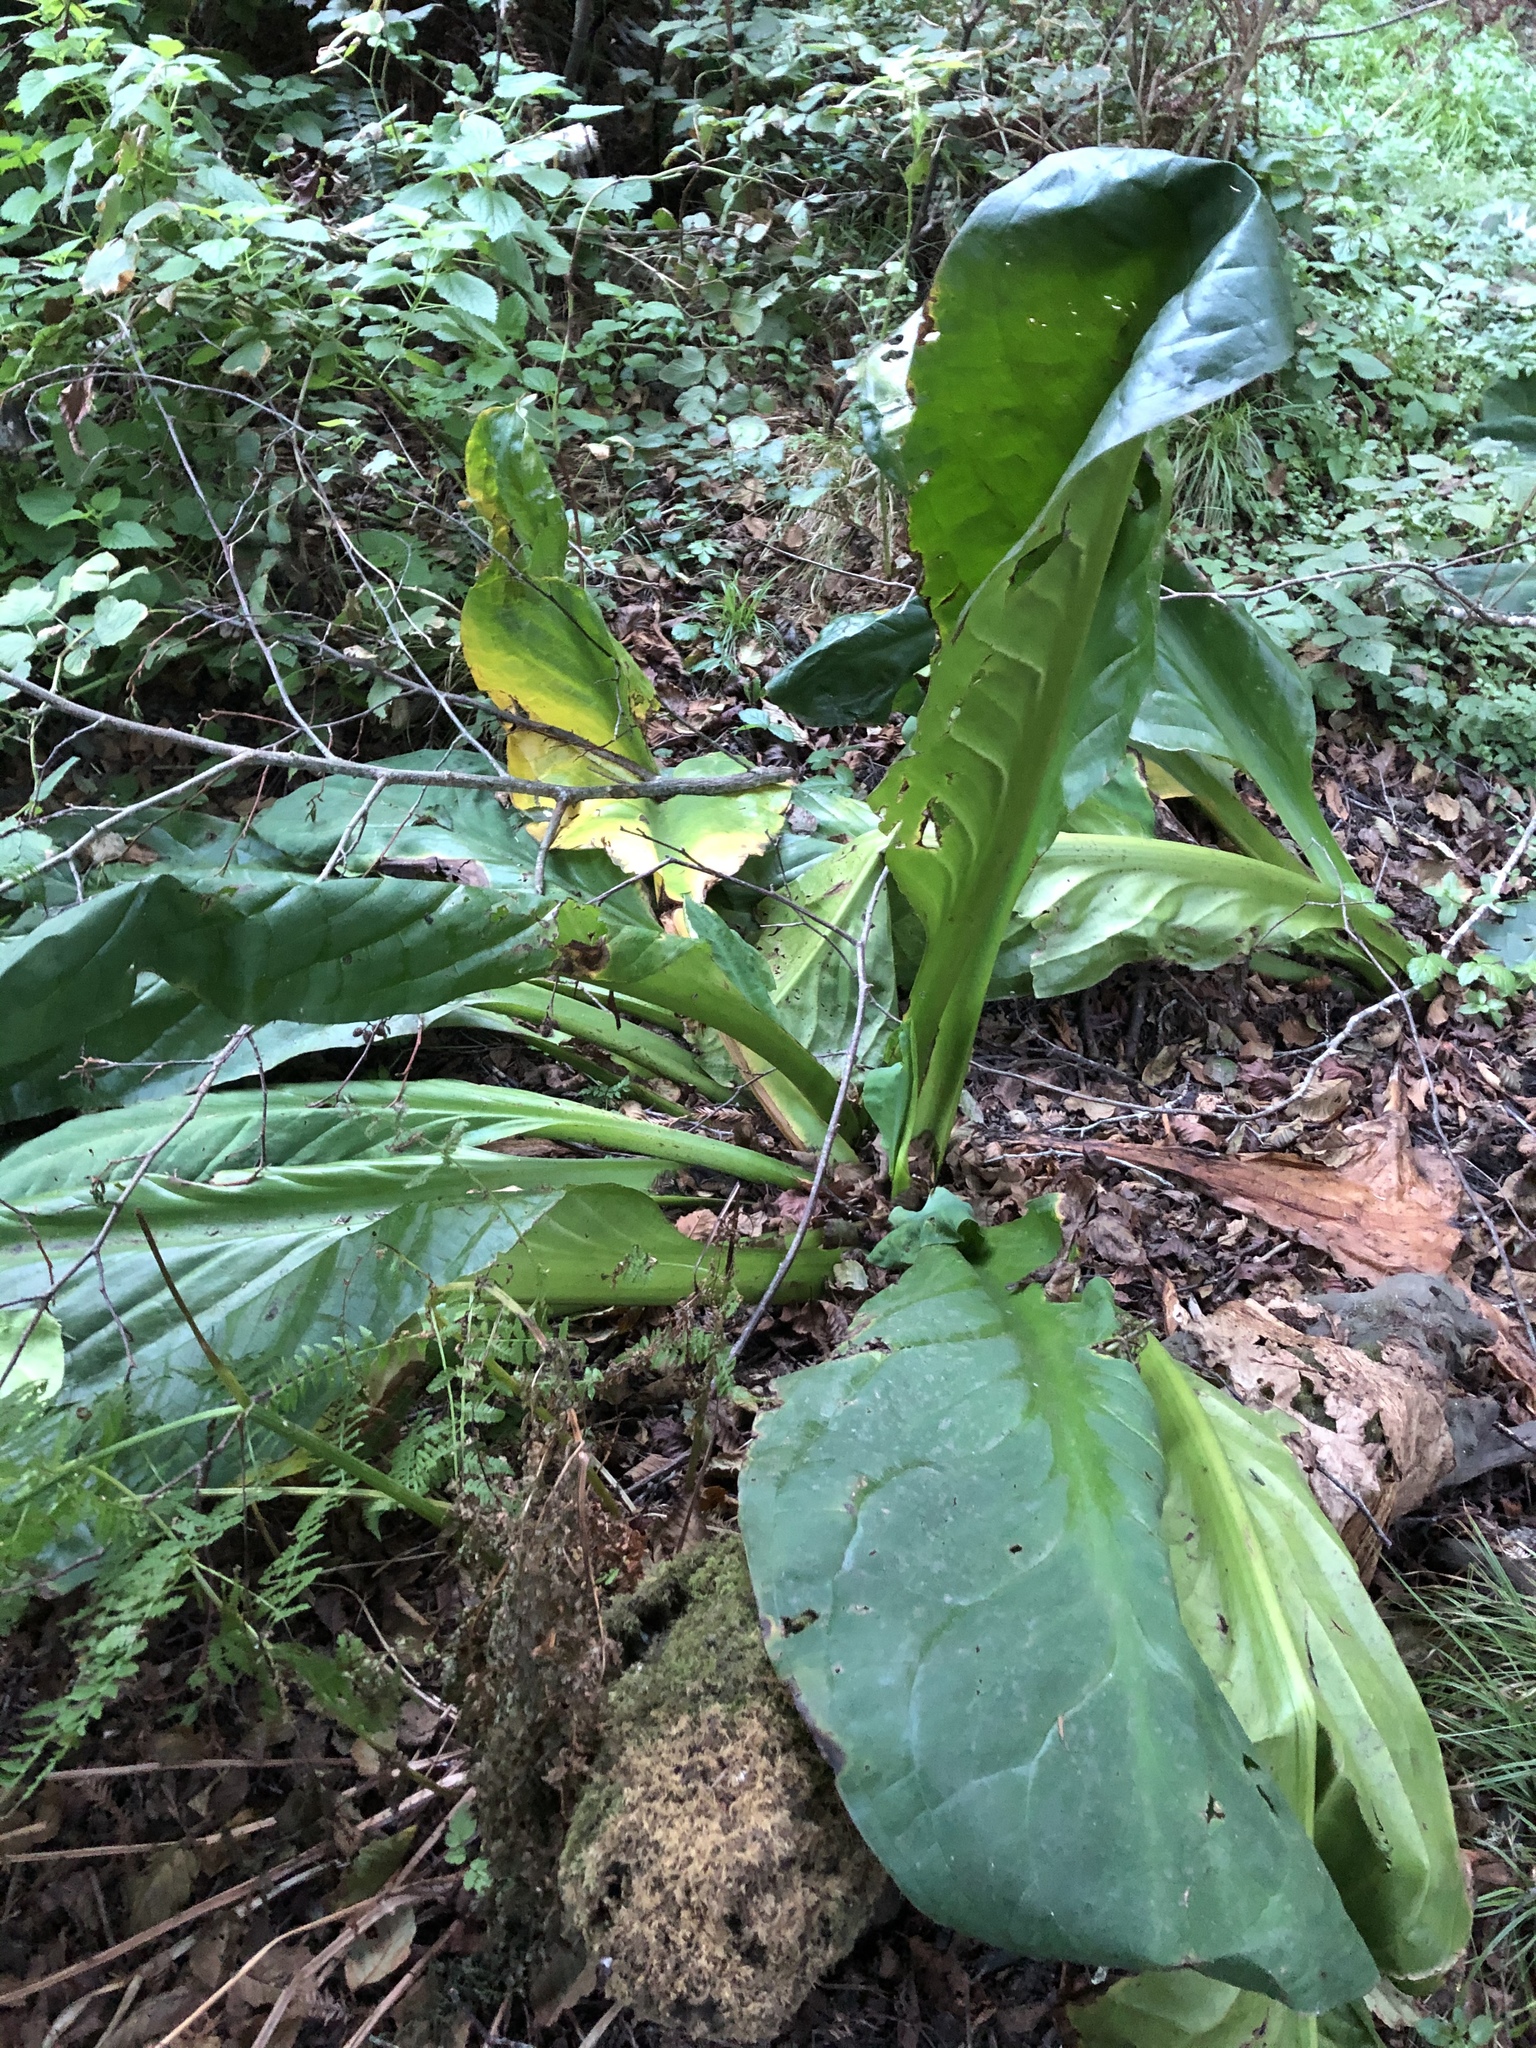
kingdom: Plantae
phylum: Tracheophyta
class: Liliopsida
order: Alismatales
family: Araceae
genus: Lysichiton
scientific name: Lysichiton americanus
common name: American skunk cabbage
